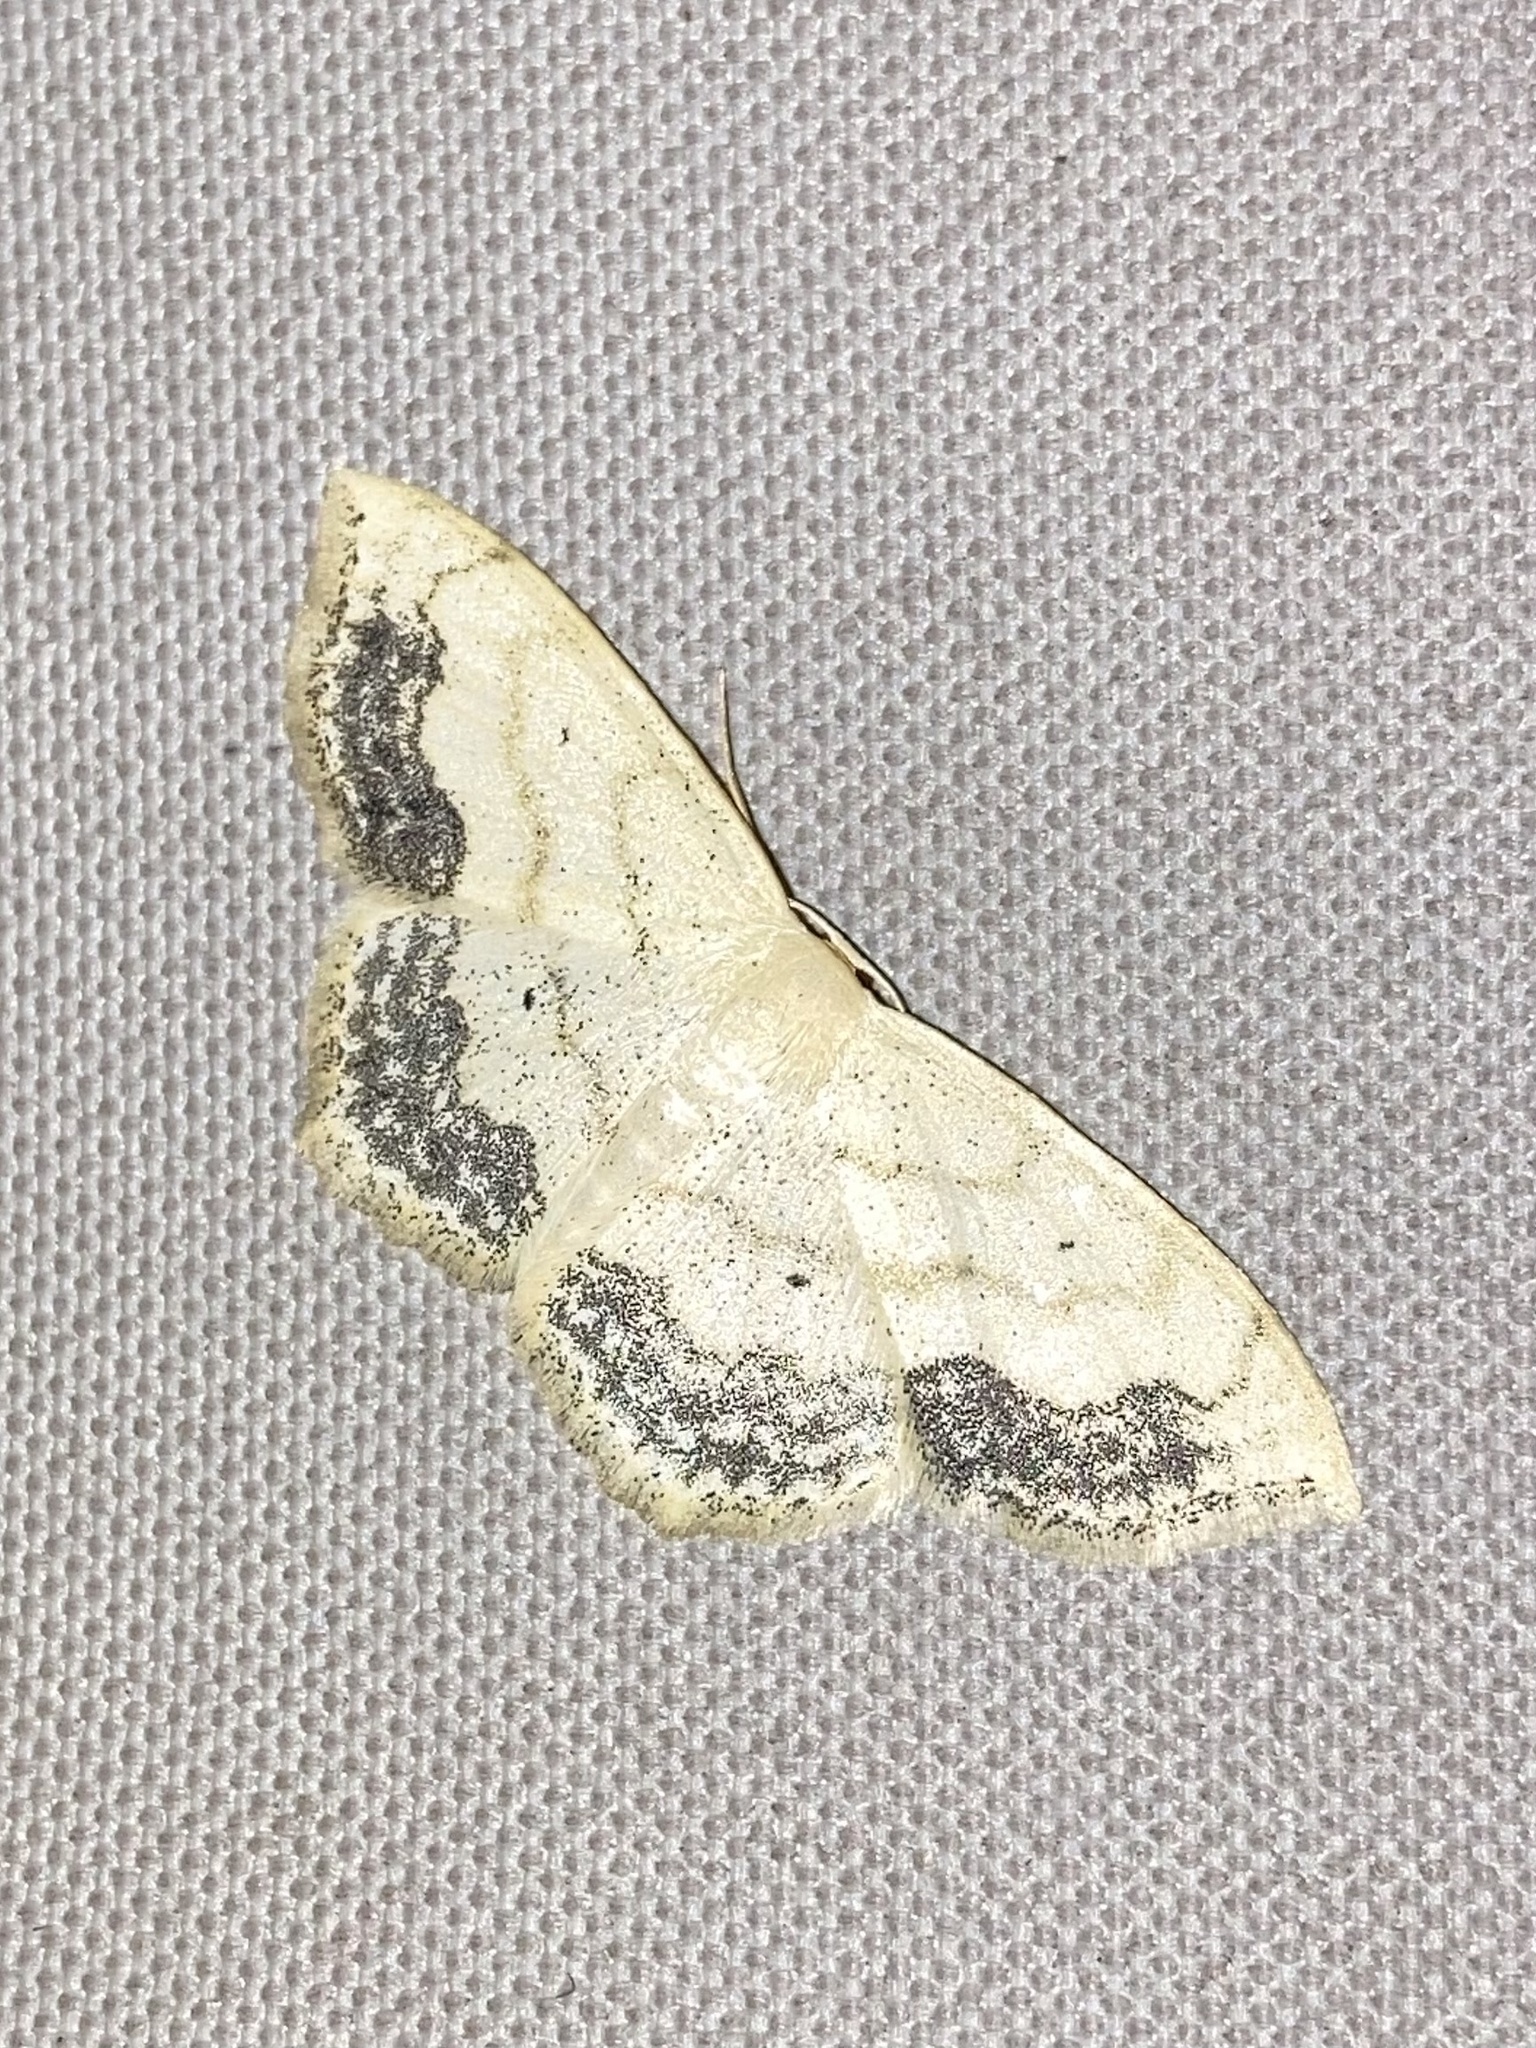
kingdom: Animalia
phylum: Arthropoda
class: Insecta
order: Lepidoptera
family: Geometridae
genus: Scopula
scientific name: Scopula limboundata
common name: Large lace border
